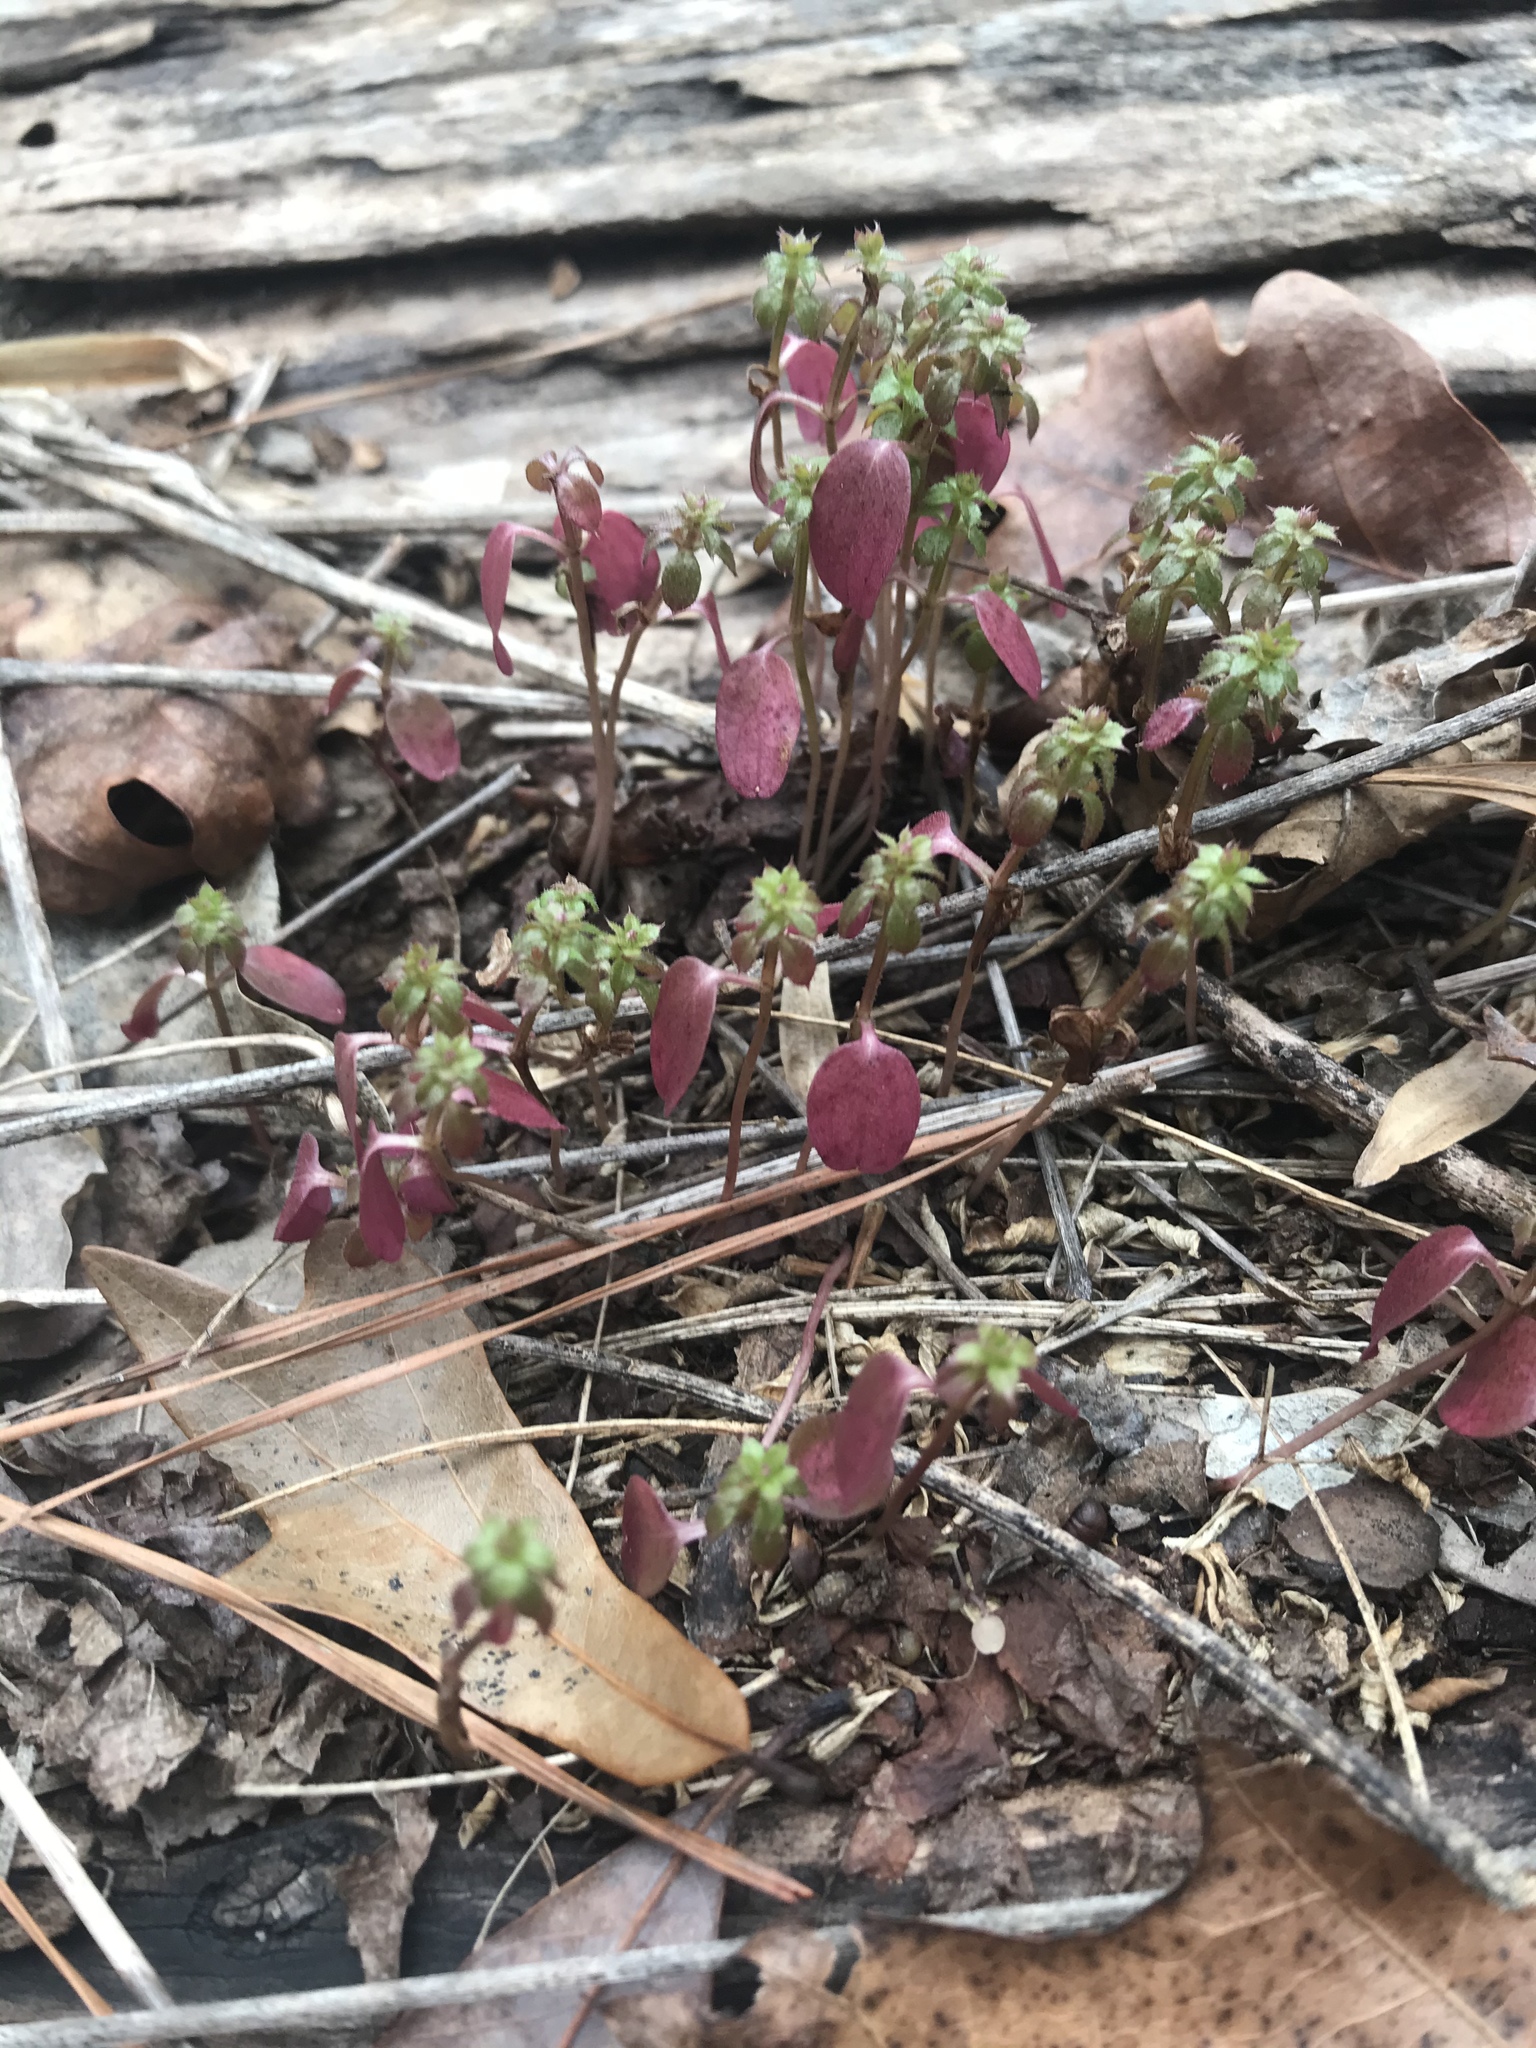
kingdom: Plantae
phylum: Tracheophyta
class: Magnoliopsida
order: Gentianales
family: Rubiaceae
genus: Galium
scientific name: Galium aparine
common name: Cleavers
